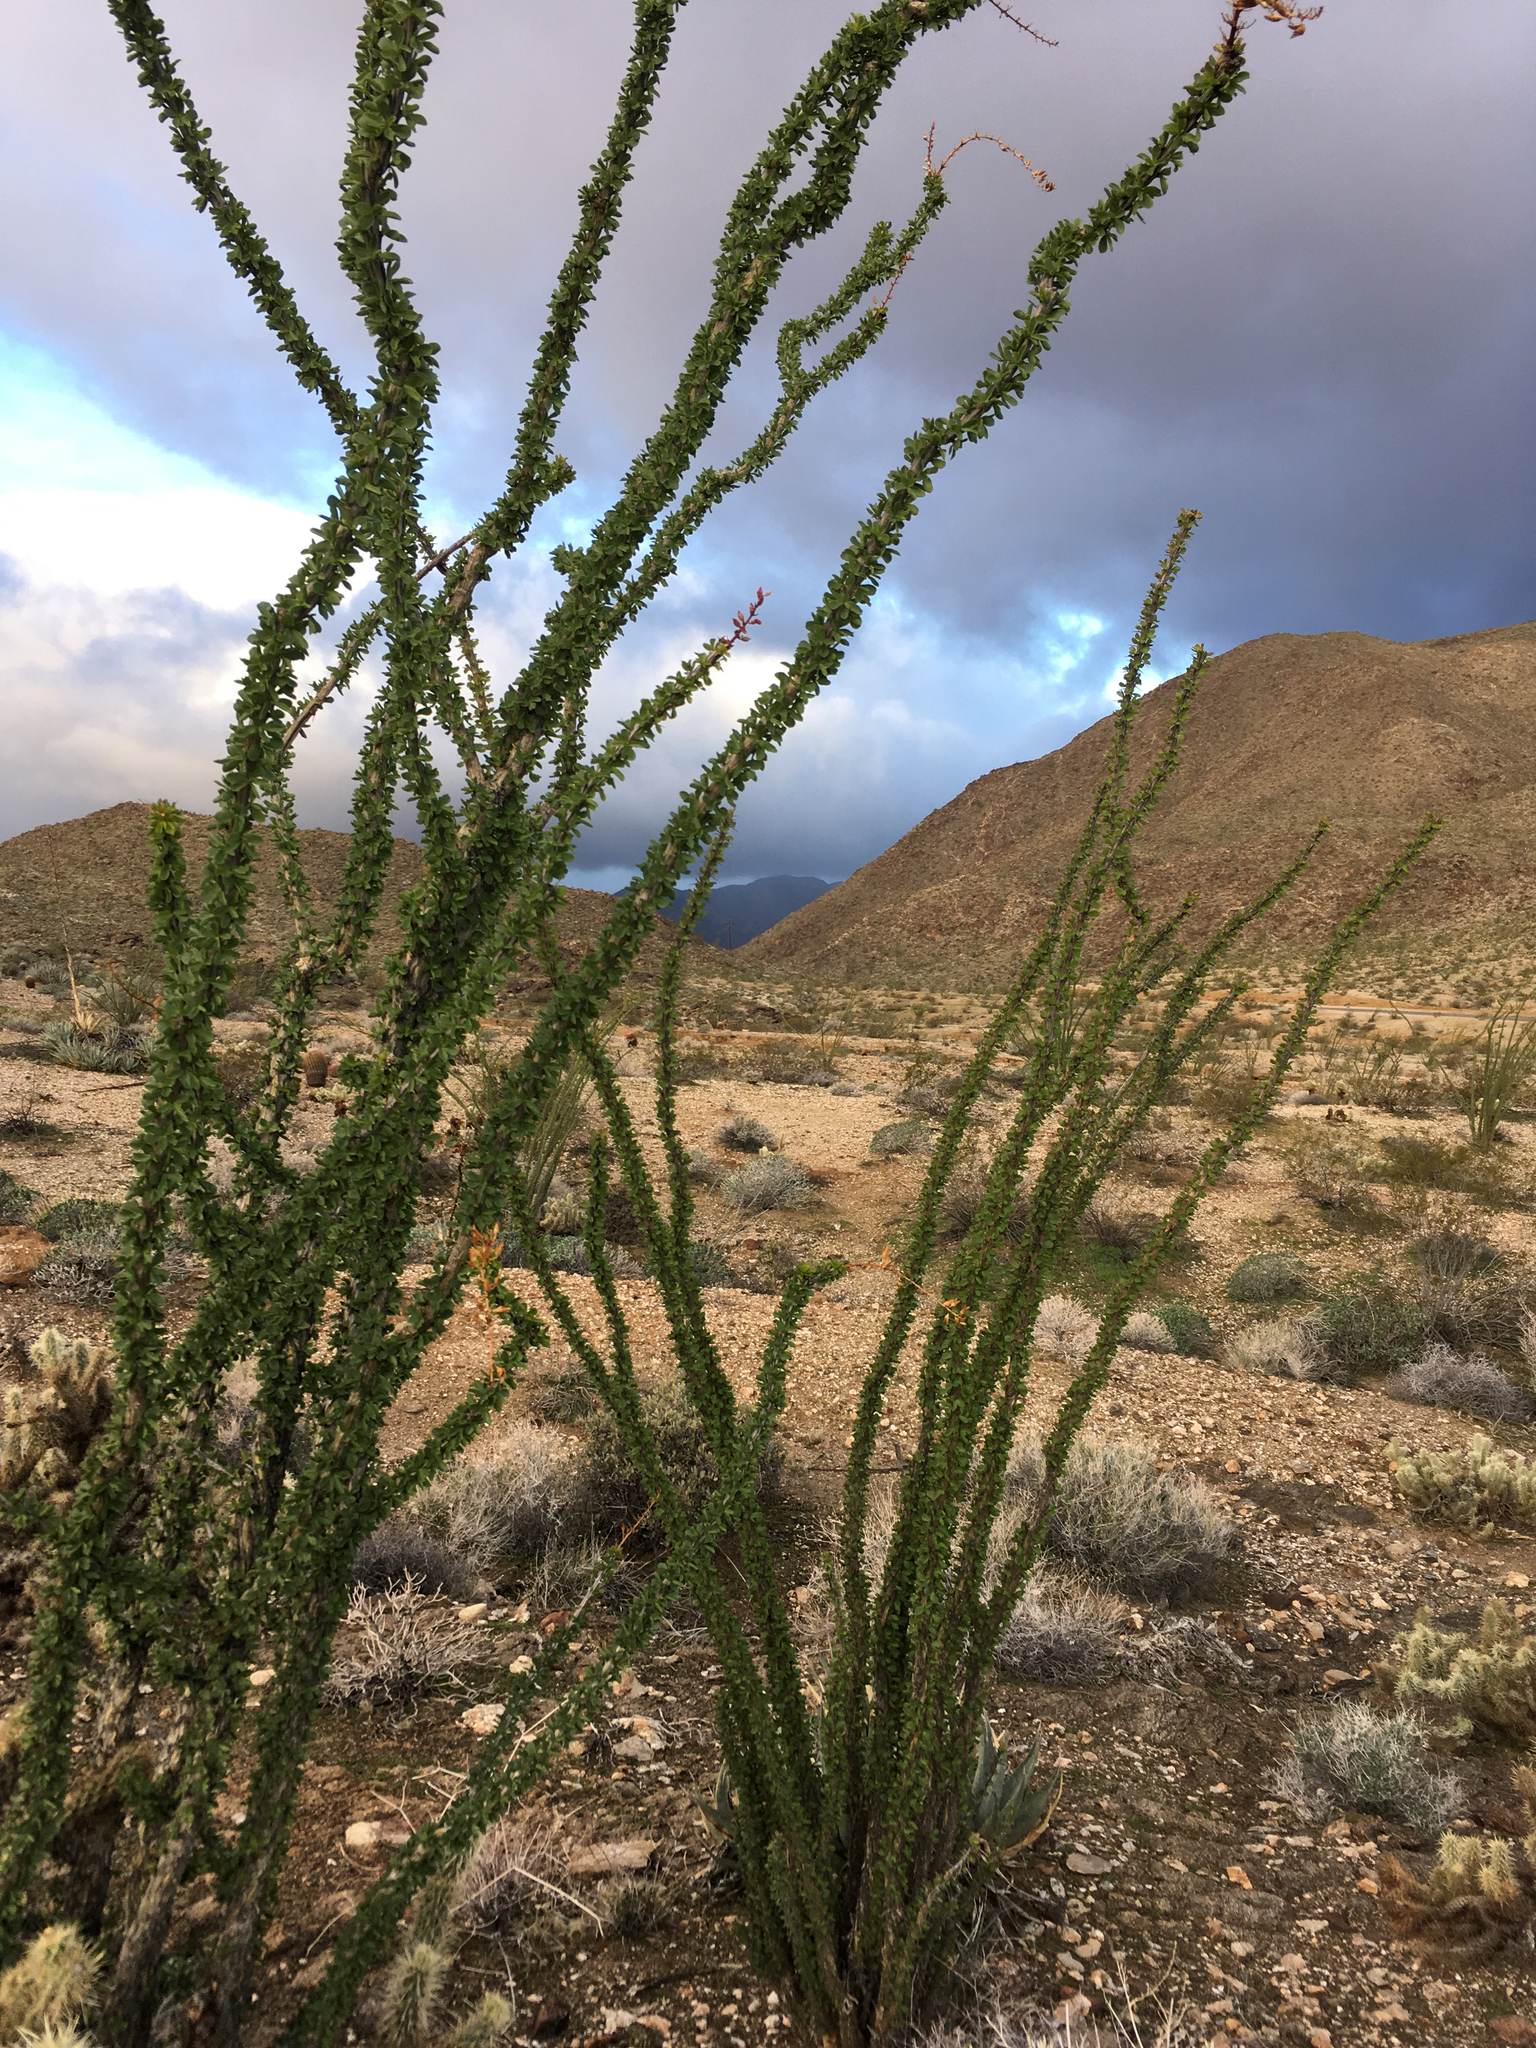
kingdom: Plantae
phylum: Tracheophyta
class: Magnoliopsida
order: Ericales
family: Fouquieriaceae
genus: Fouquieria
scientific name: Fouquieria splendens
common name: Vine-cactus
